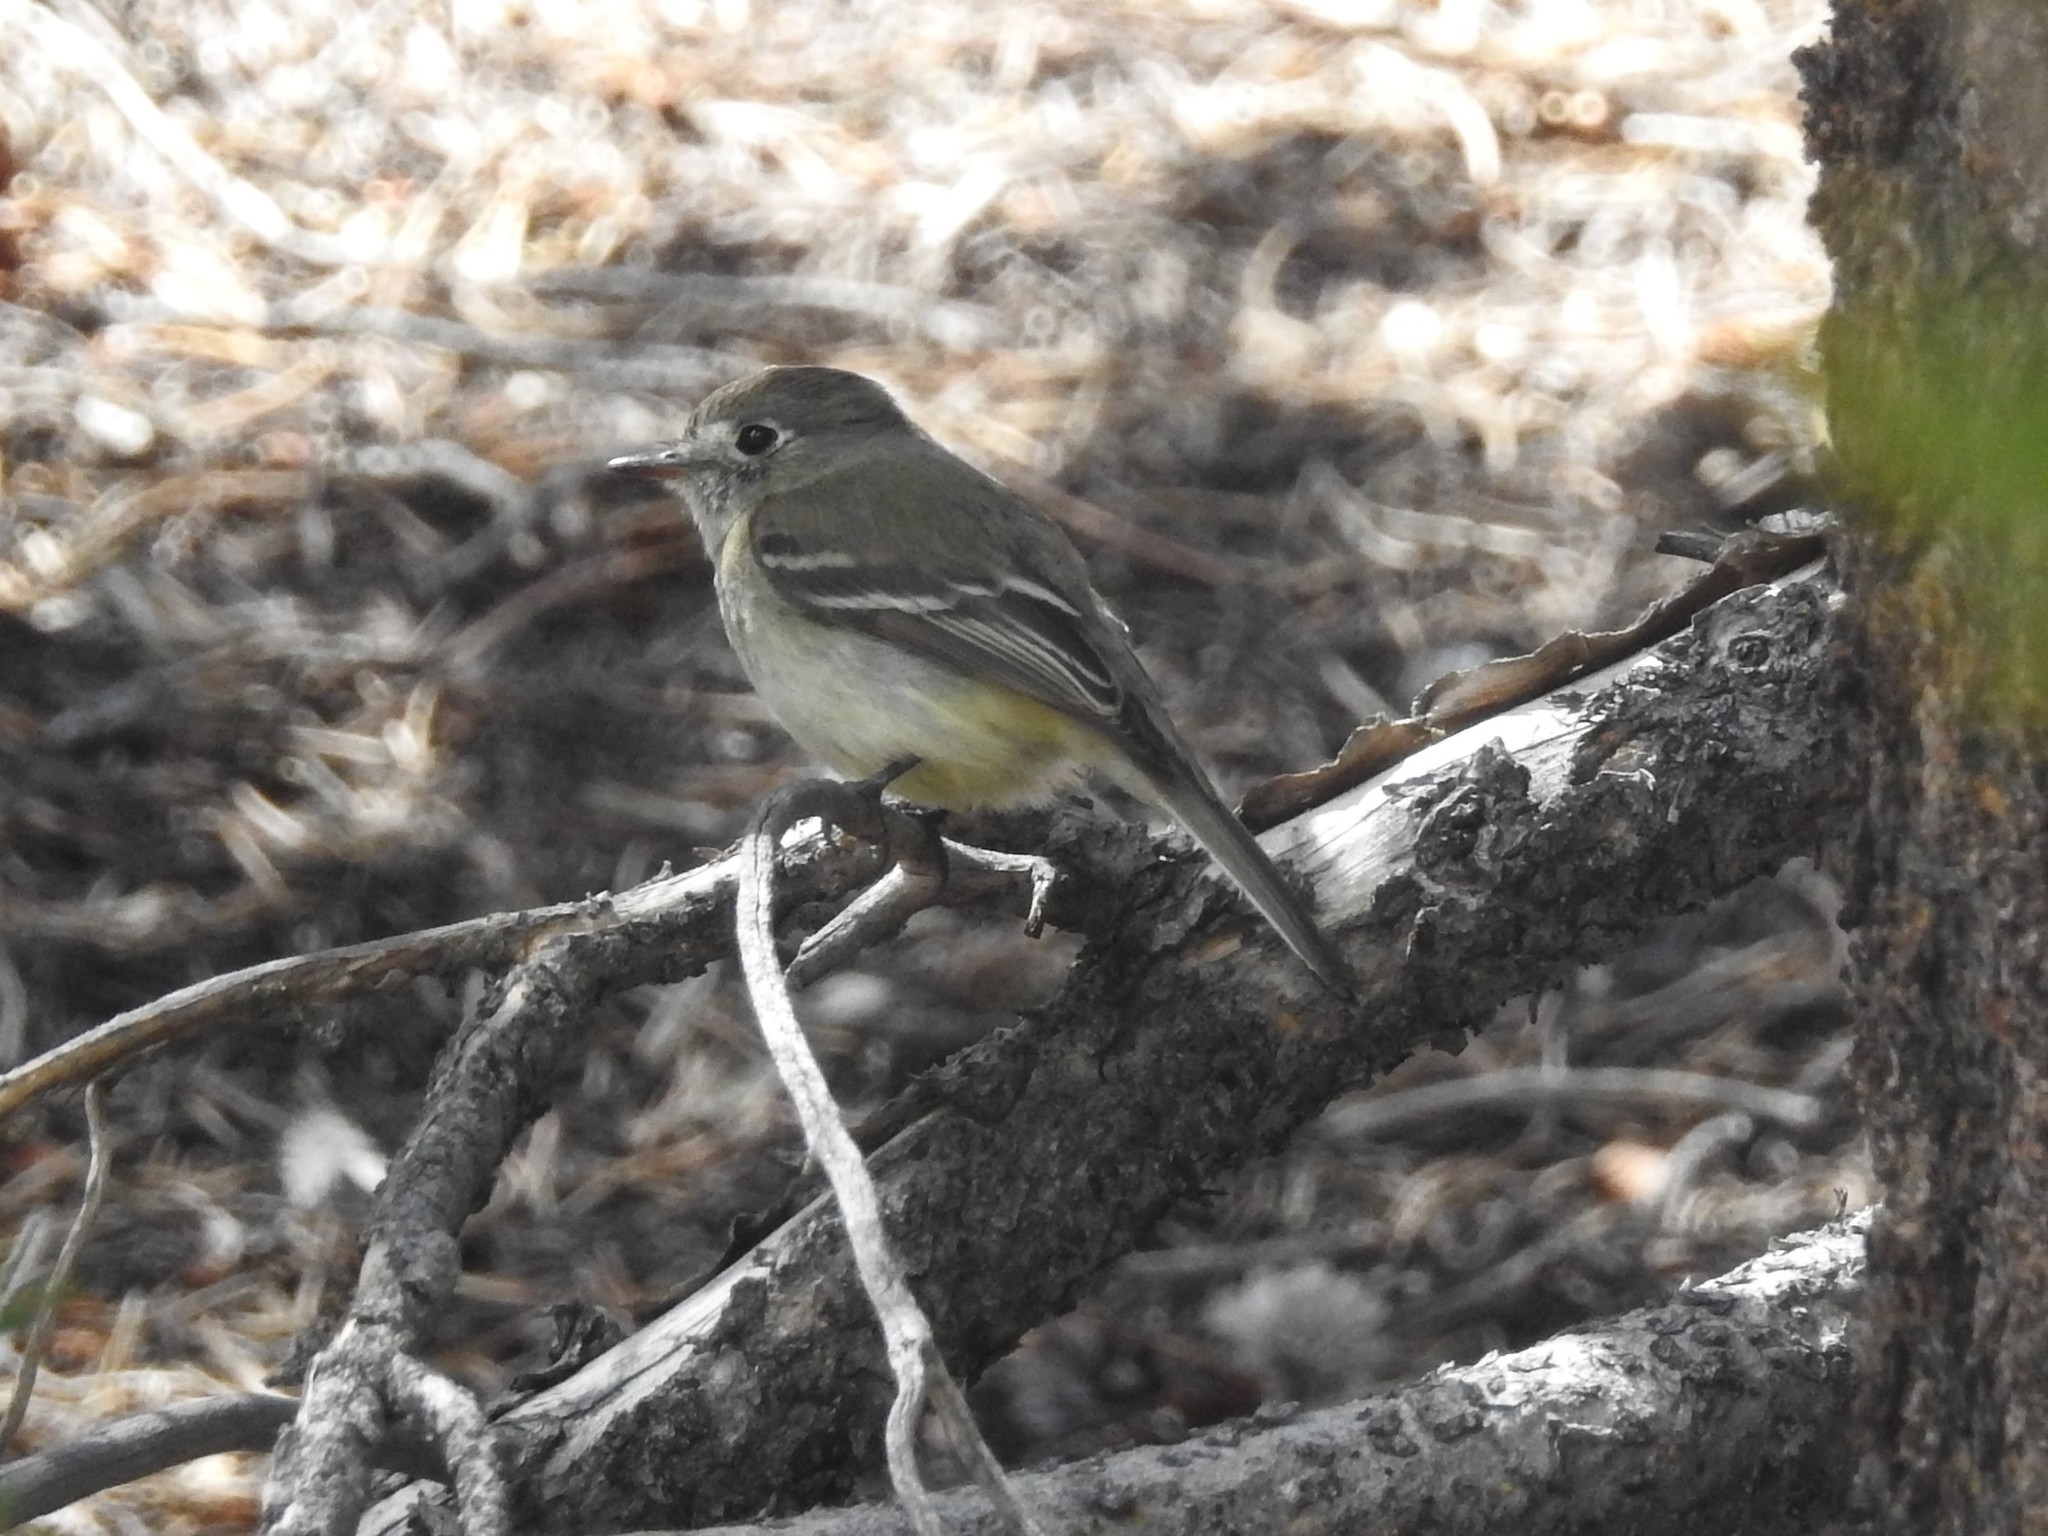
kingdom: Animalia
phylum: Chordata
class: Aves
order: Passeriformes
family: Tyrannidae
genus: Empidonax
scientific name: Empidonax oberholseri
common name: Dusky flycatcher
